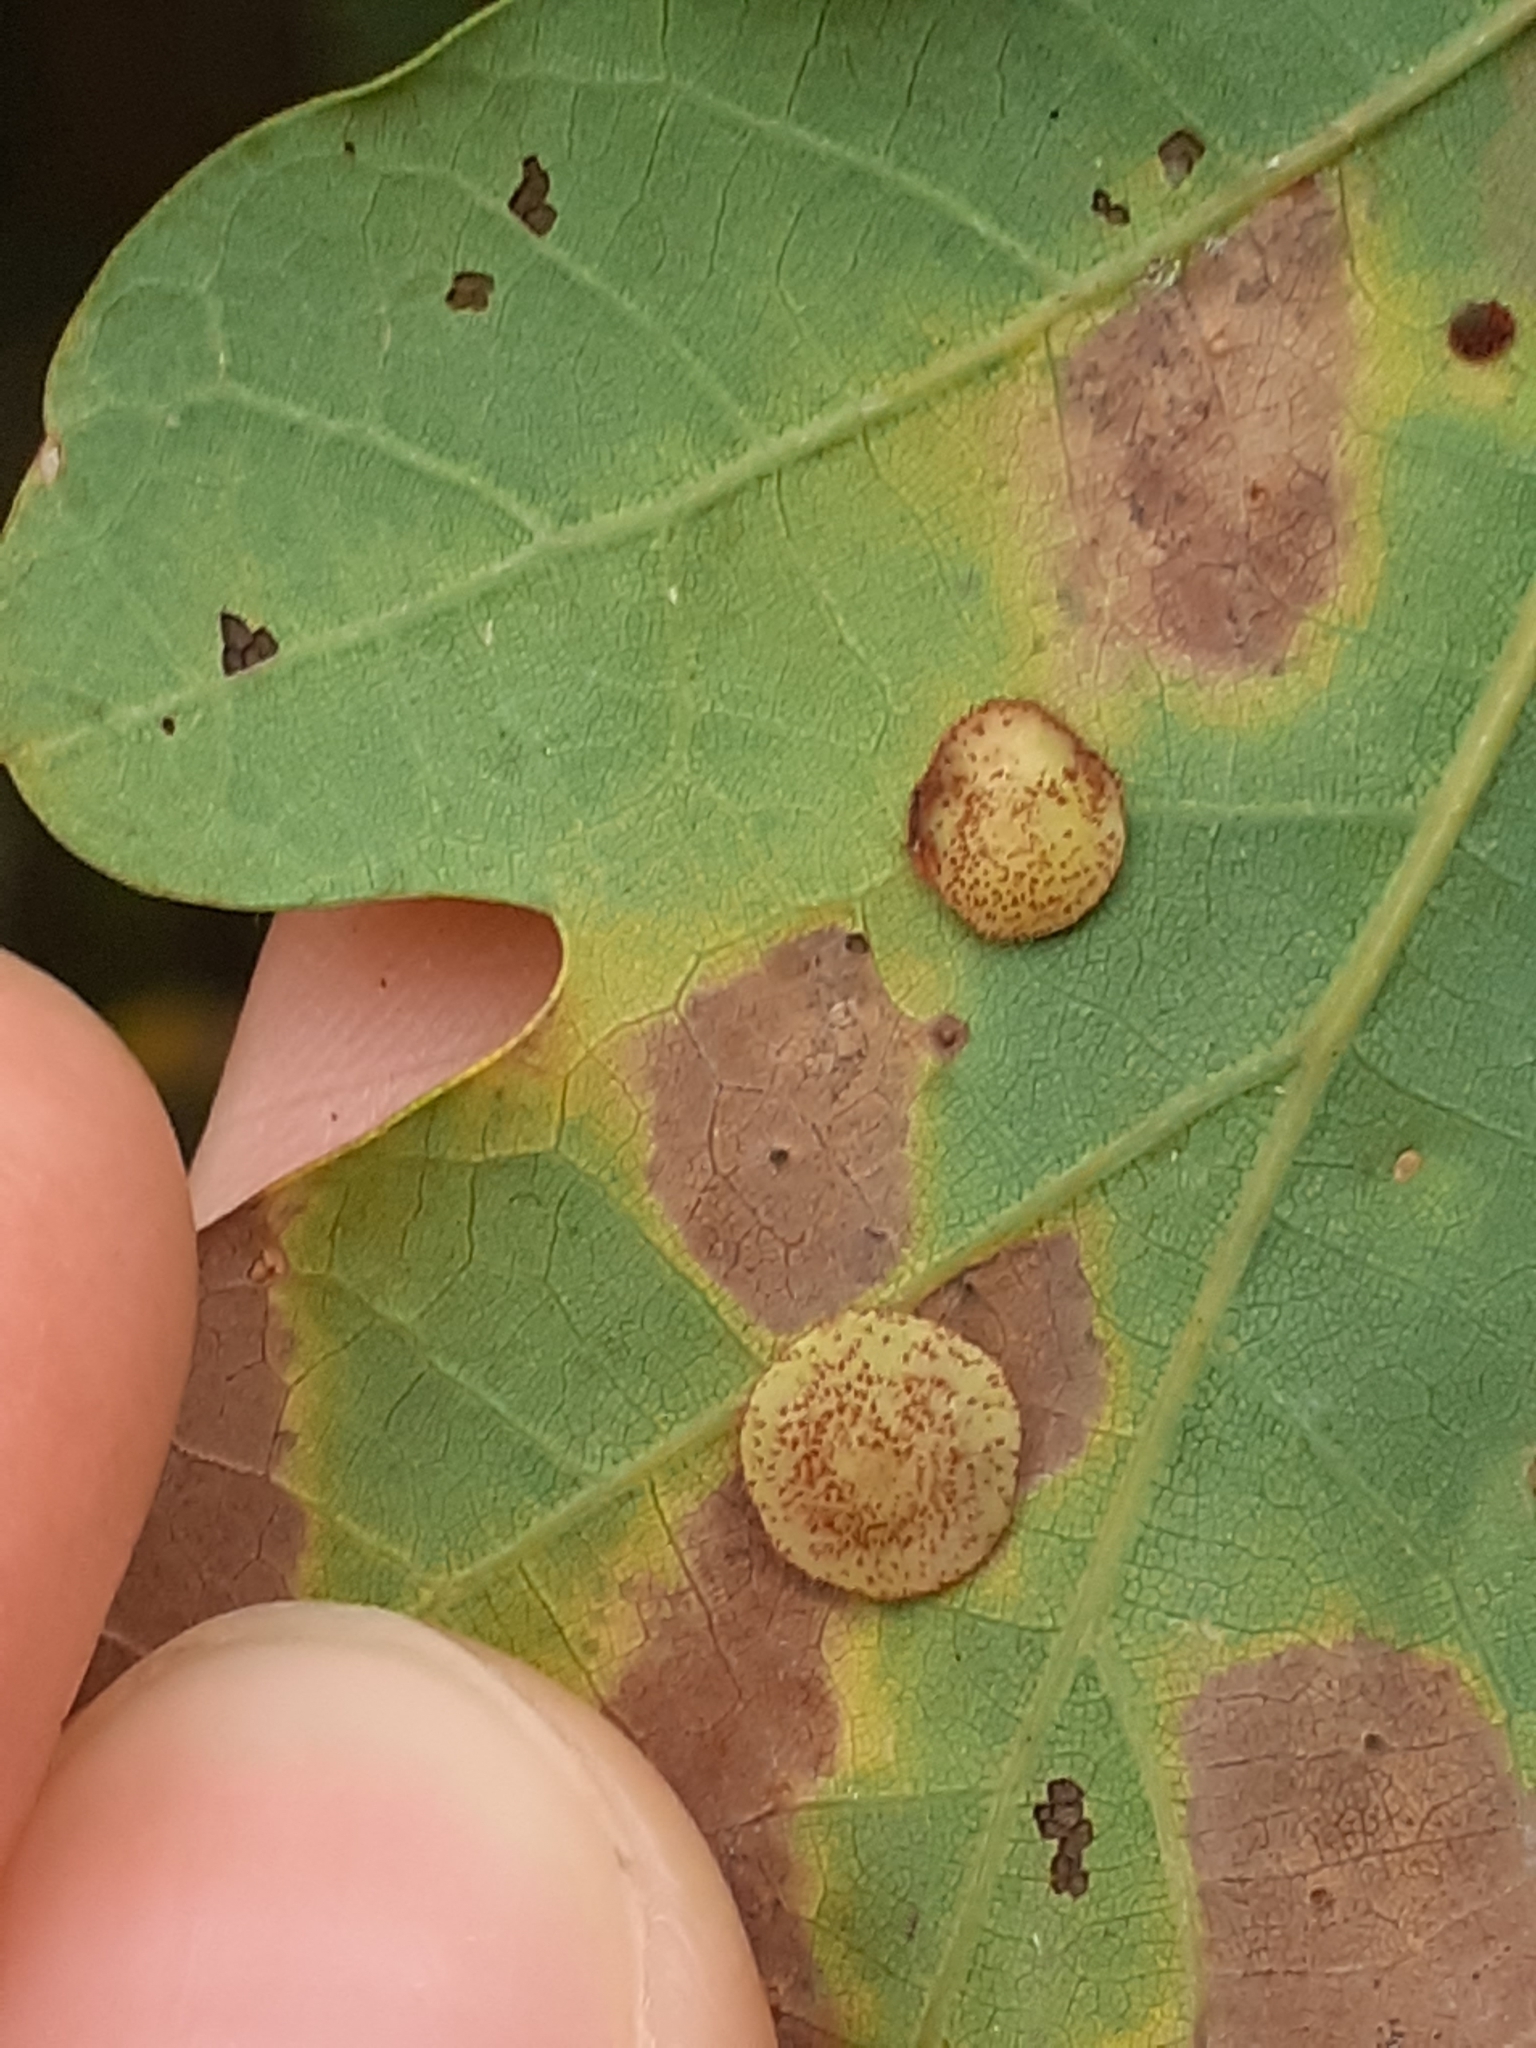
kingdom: Animalia
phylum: Arthropoda
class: Insecta
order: Hymenoptera
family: Cynipidae
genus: Neuroterus
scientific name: Neuroterus quercusbaccarum
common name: Common spangle gall
